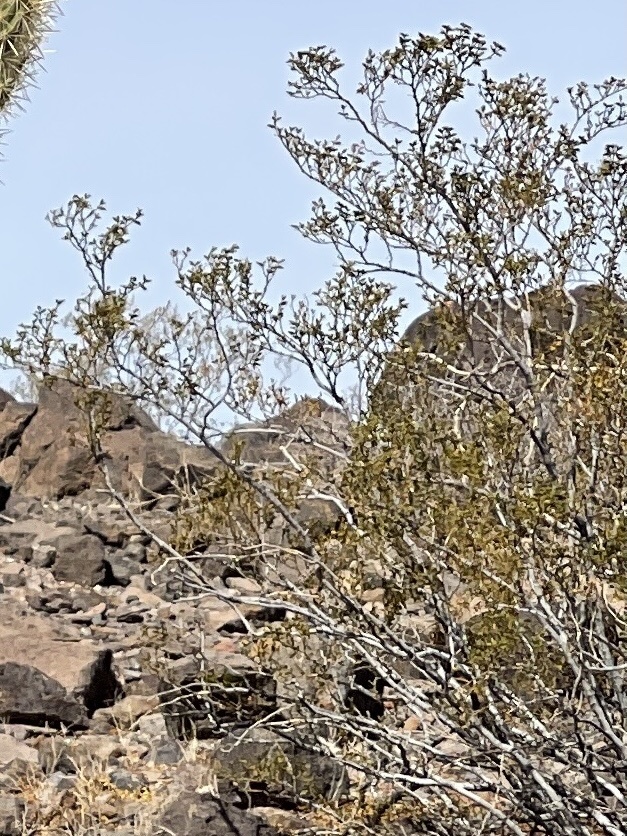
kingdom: Plantae
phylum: Tracheophyta
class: Magnoliopsida
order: Zygophyllales
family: Zygophyllaceae
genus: Larrea
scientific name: Larrea tridentata
